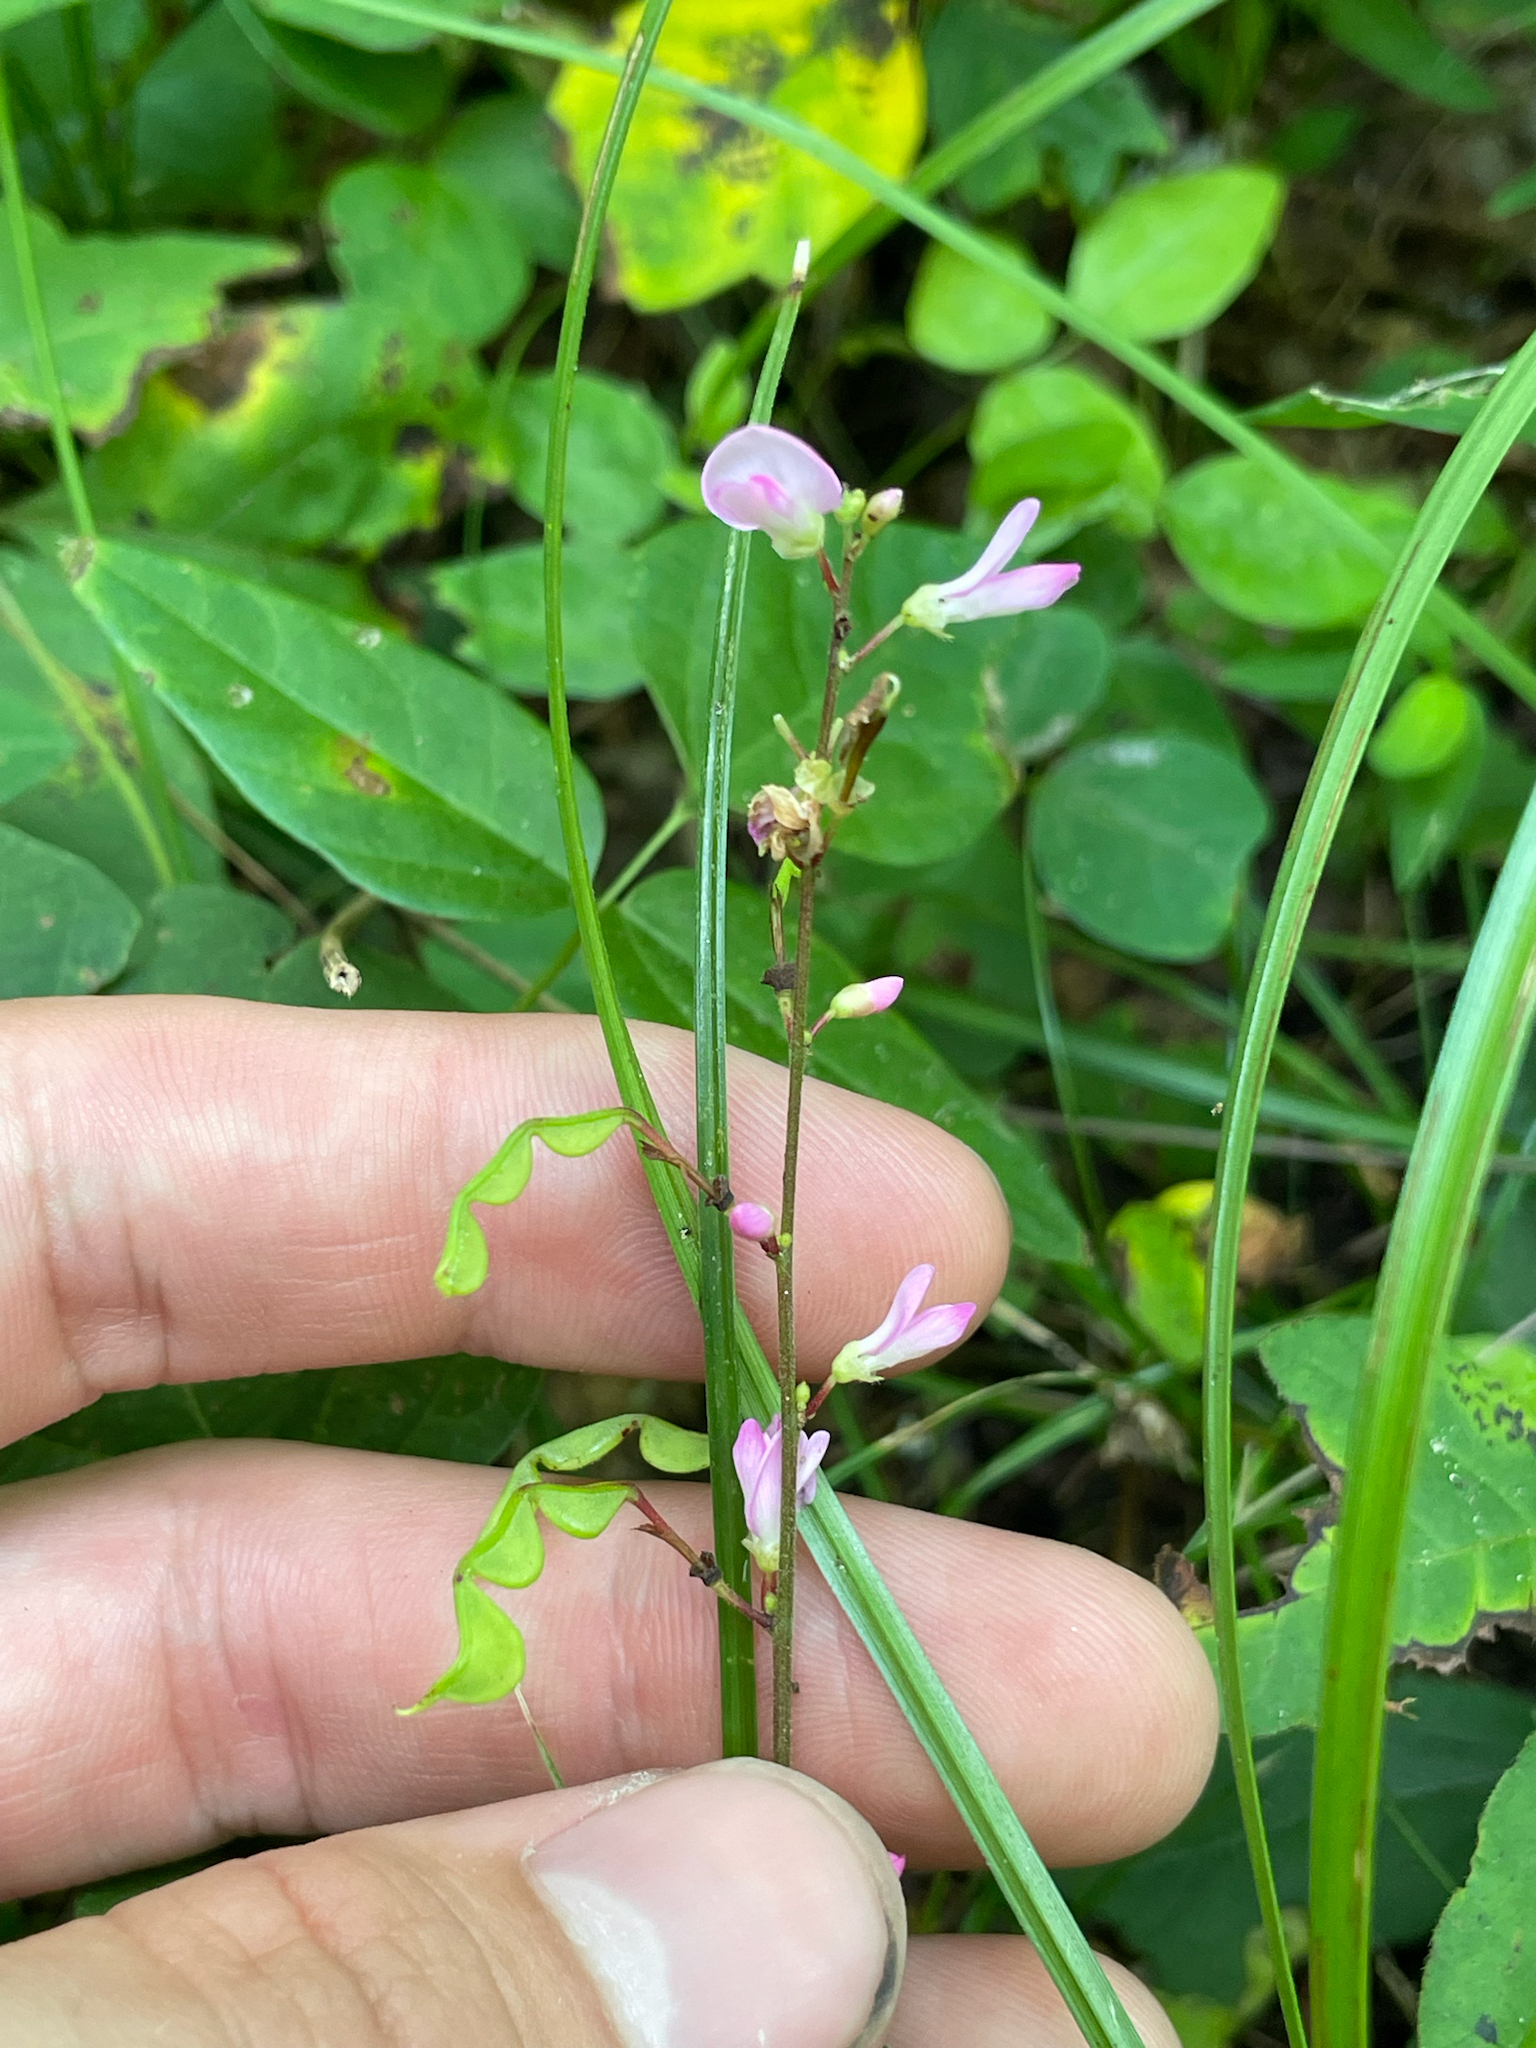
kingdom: Plantae
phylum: Tracheophyta
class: Magnoliopsida
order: Fabales
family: Fabaceae
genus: Hylodesmum
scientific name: Hylodesmum glutinosum
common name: Clustered-leaved tick-trefoil
